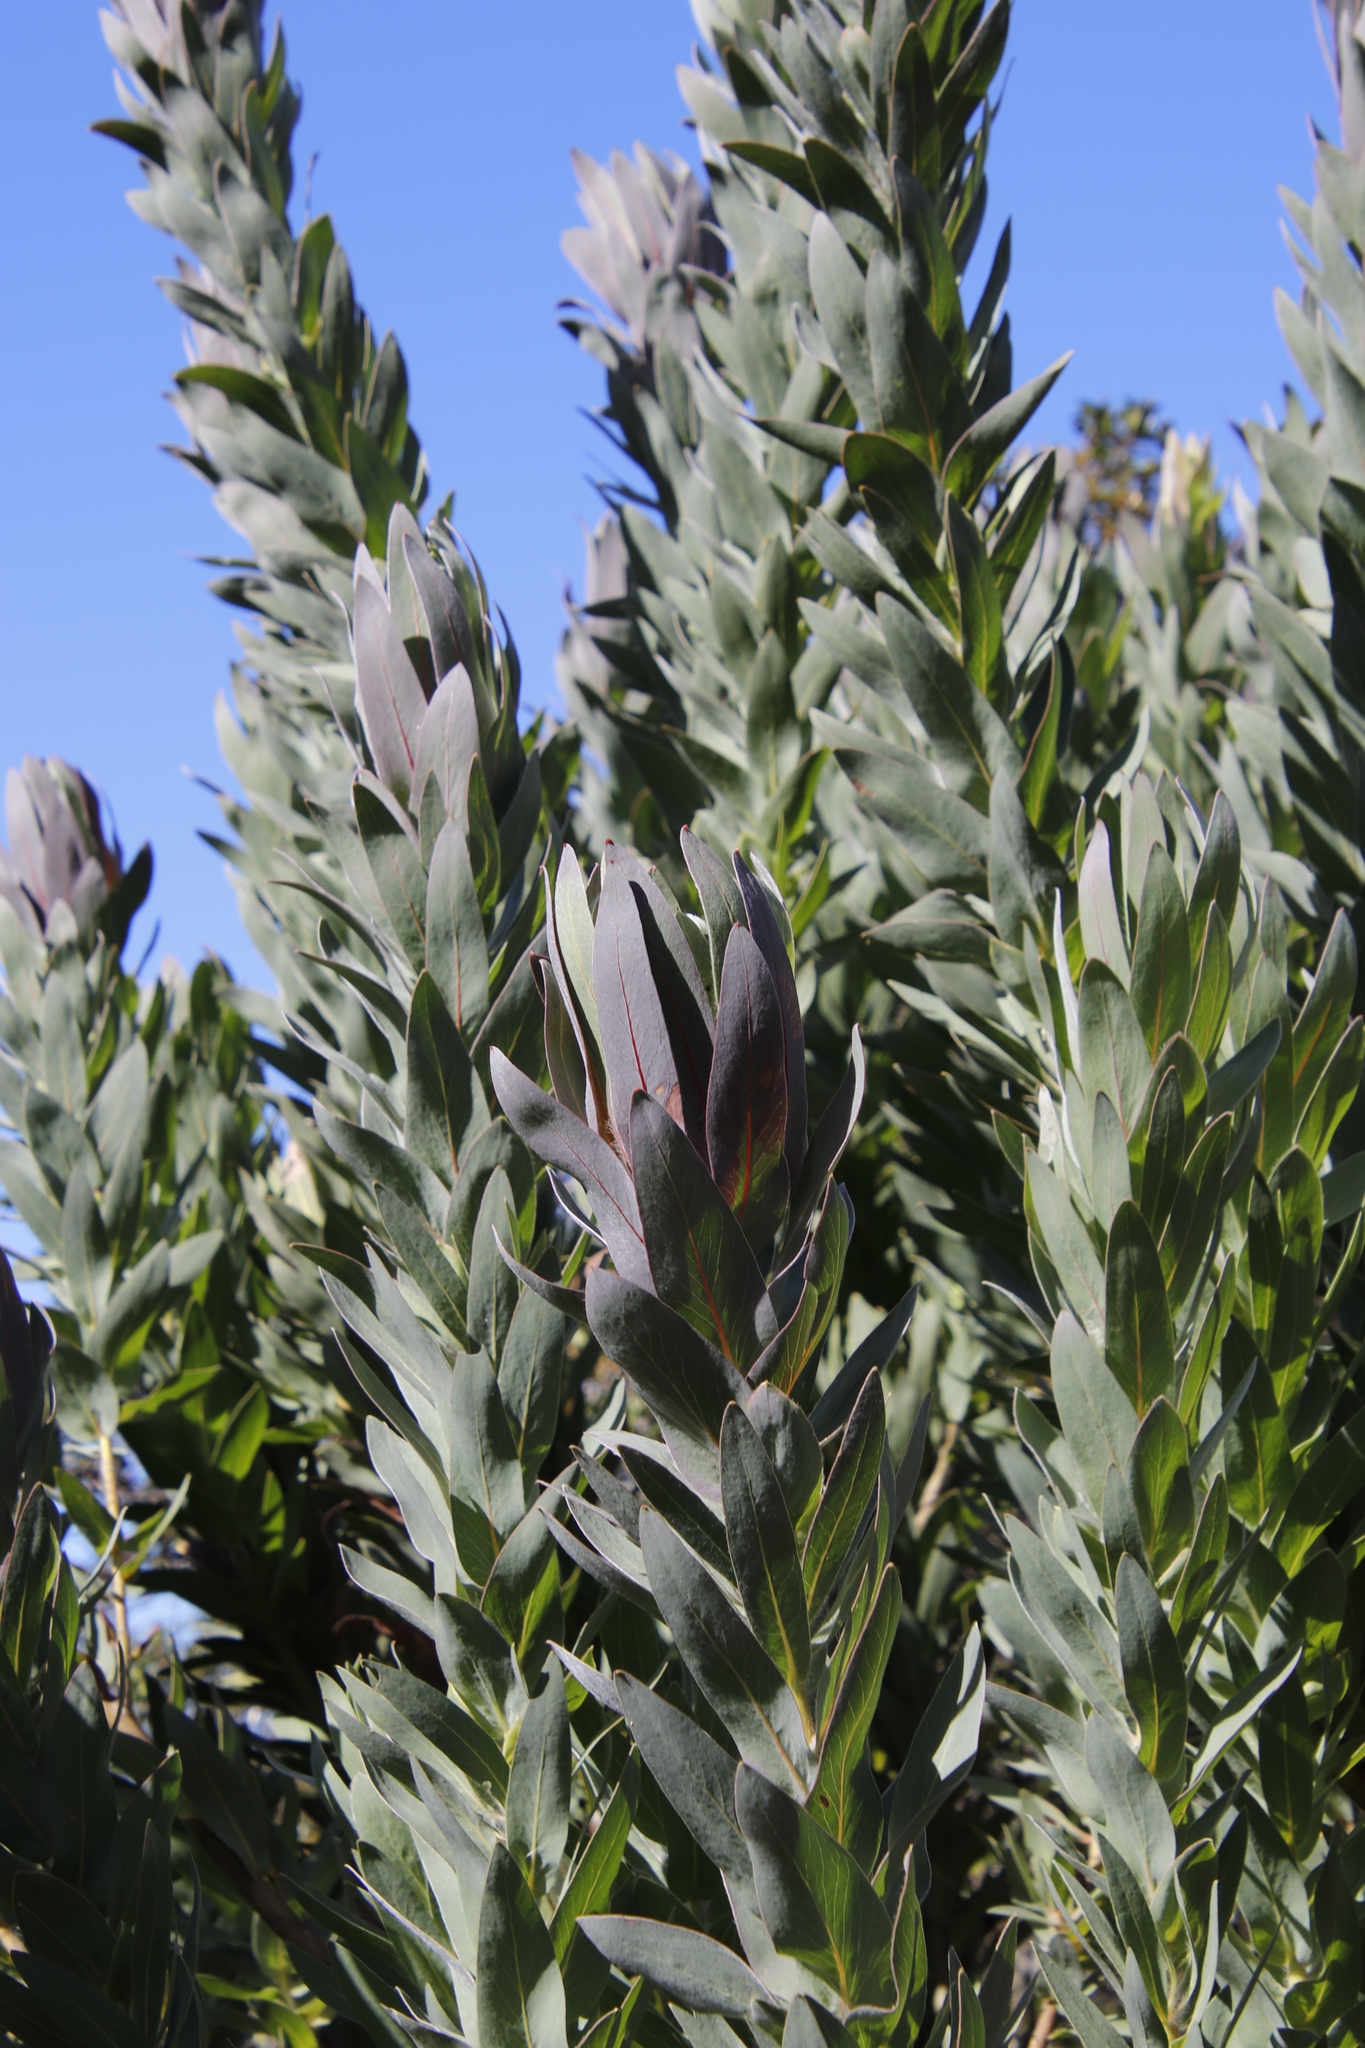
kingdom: Plantae
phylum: Tracheophyta
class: Magnoliopsida
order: Proteales
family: Proteaceae
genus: Protea
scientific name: Protea coronata
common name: Green sugarbush
